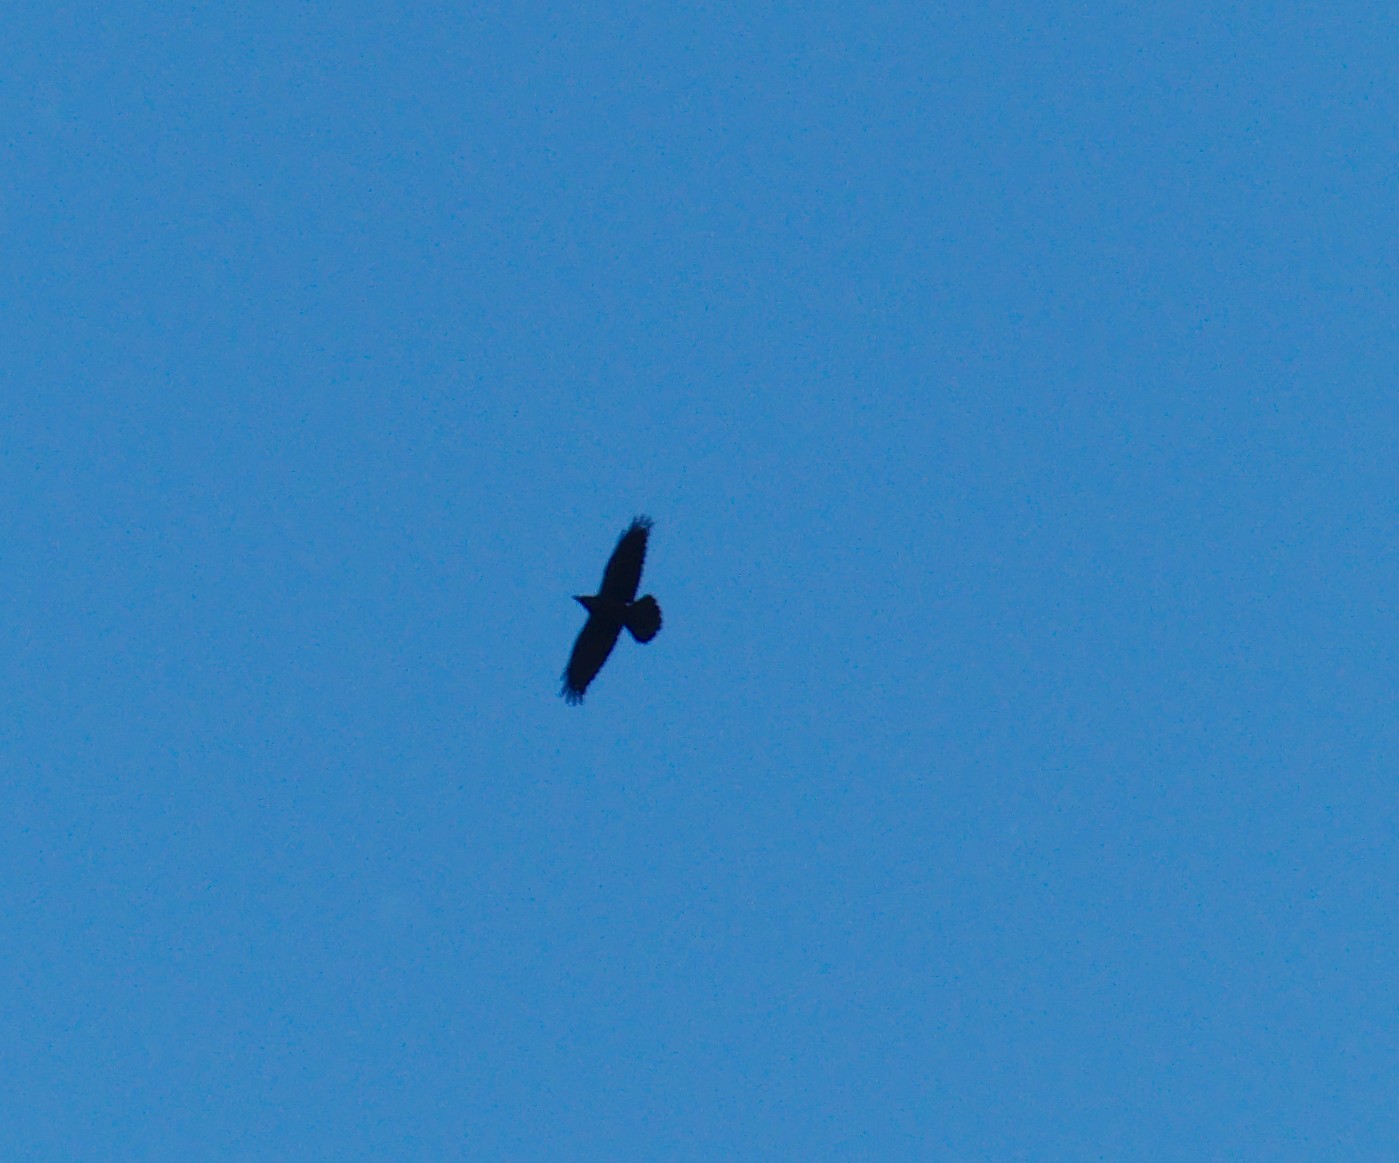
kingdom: Animalia
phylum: Chordata
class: Aves
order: Passeriformes
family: Corvidae
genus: Corvus
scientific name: Corvus corax
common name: Common raven
